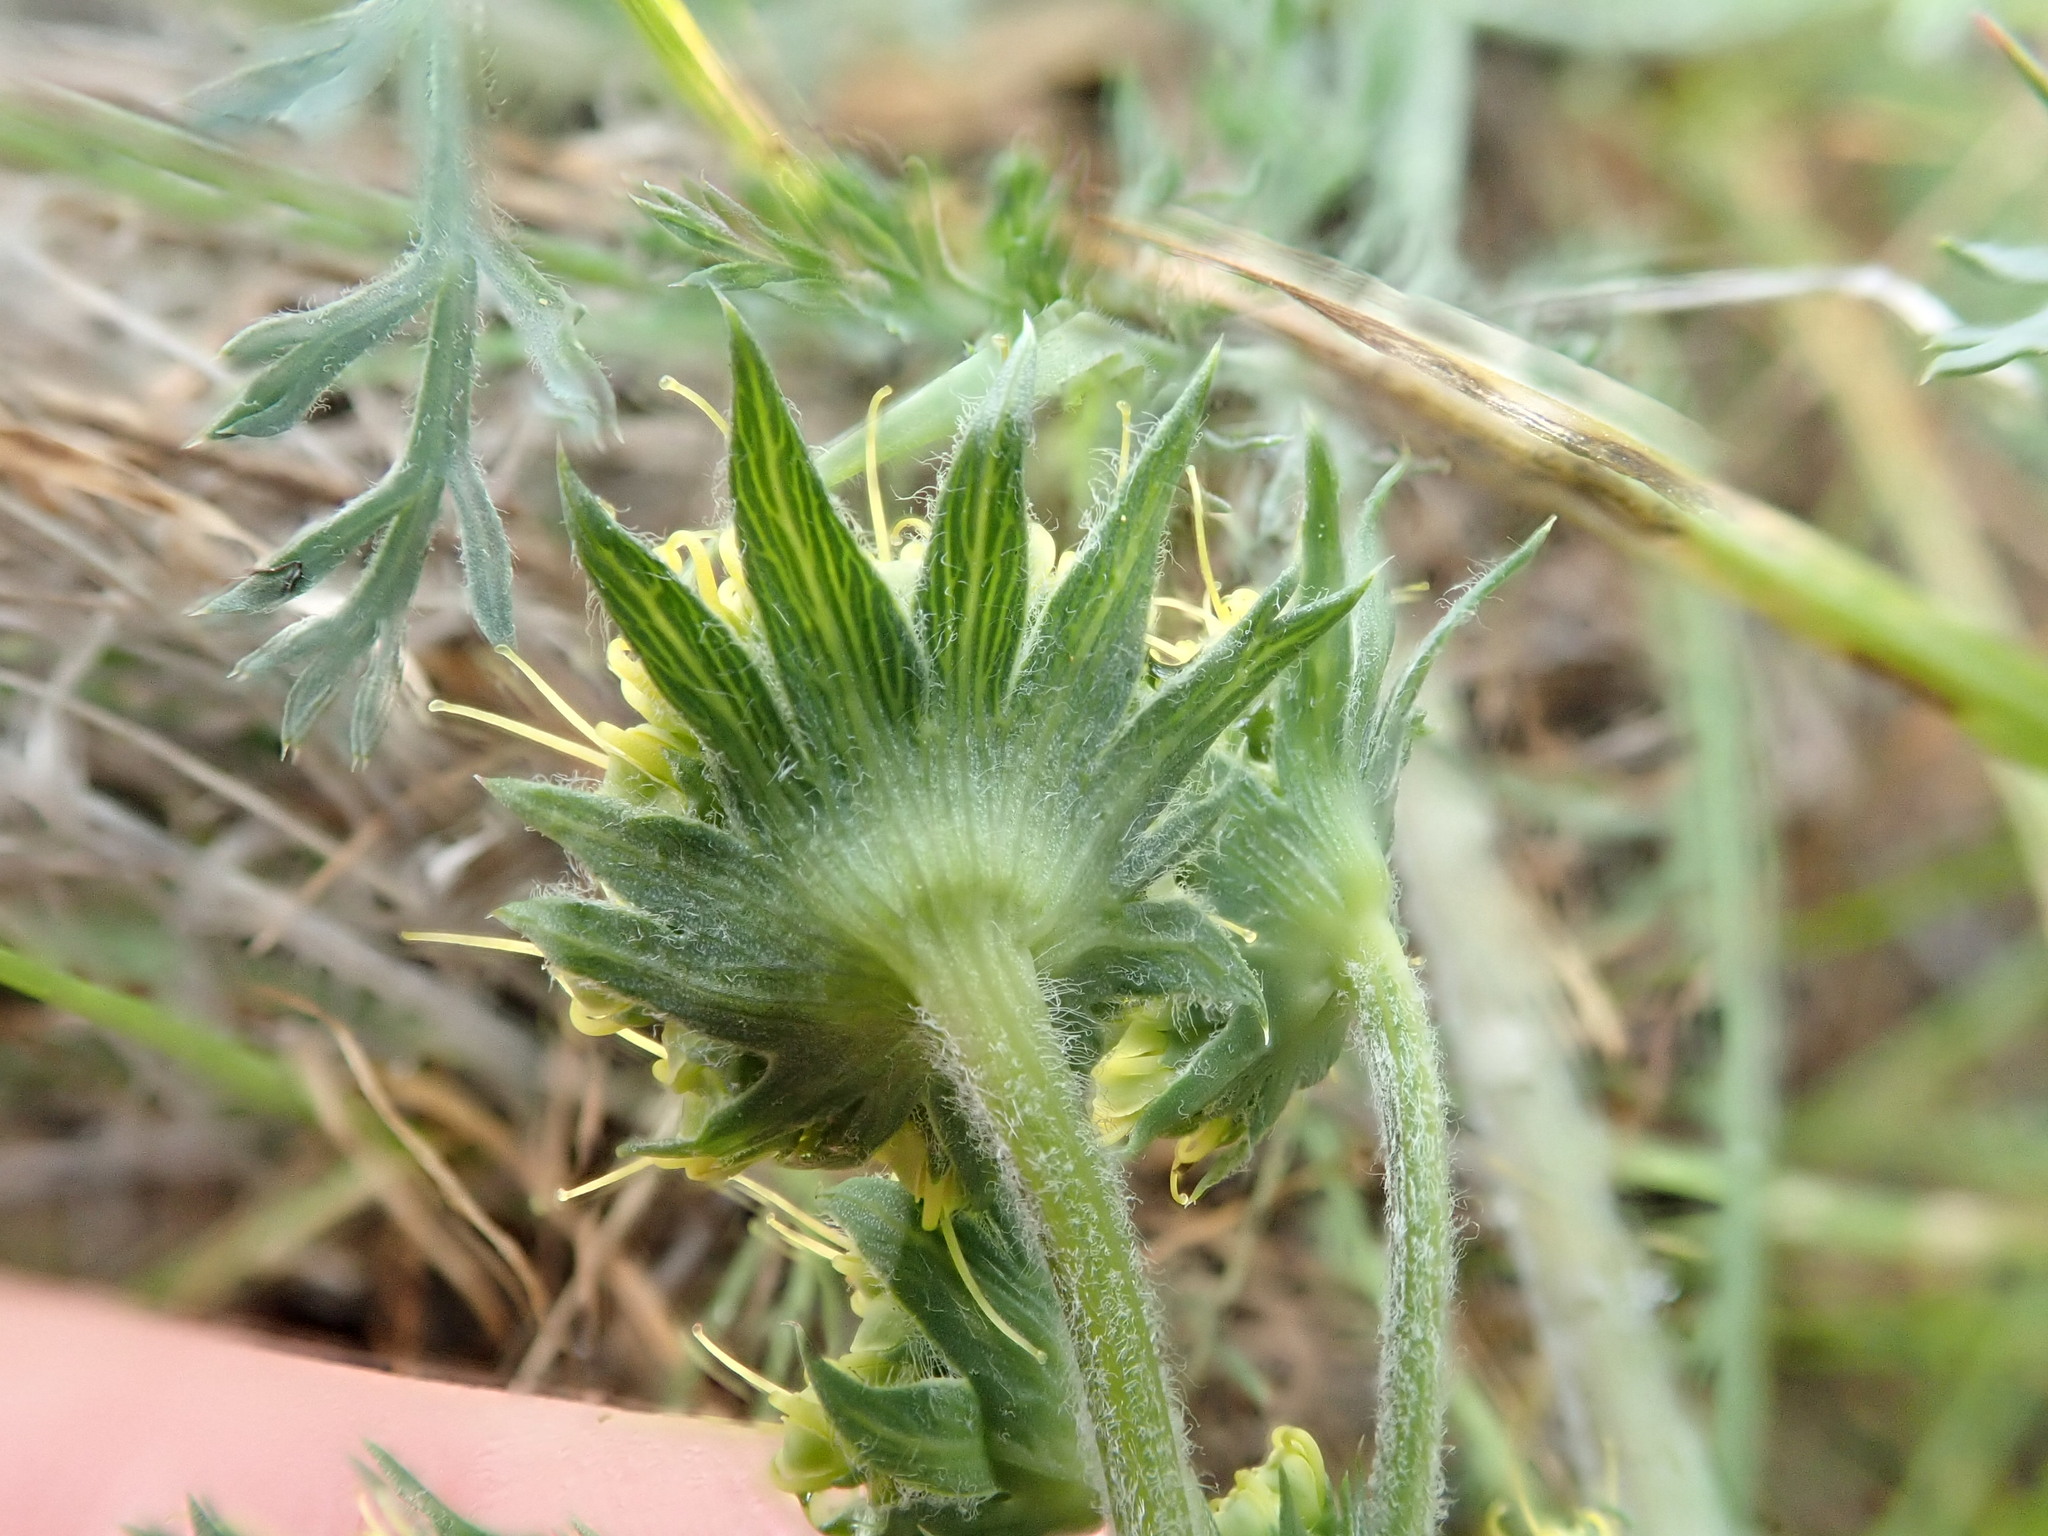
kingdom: Plantae
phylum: Tracheophyta
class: Magnoliopsida
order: Apiales
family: Apiaceae
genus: Lomatium
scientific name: Lomatium macrocarpum
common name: Big-seed biscuitroot
